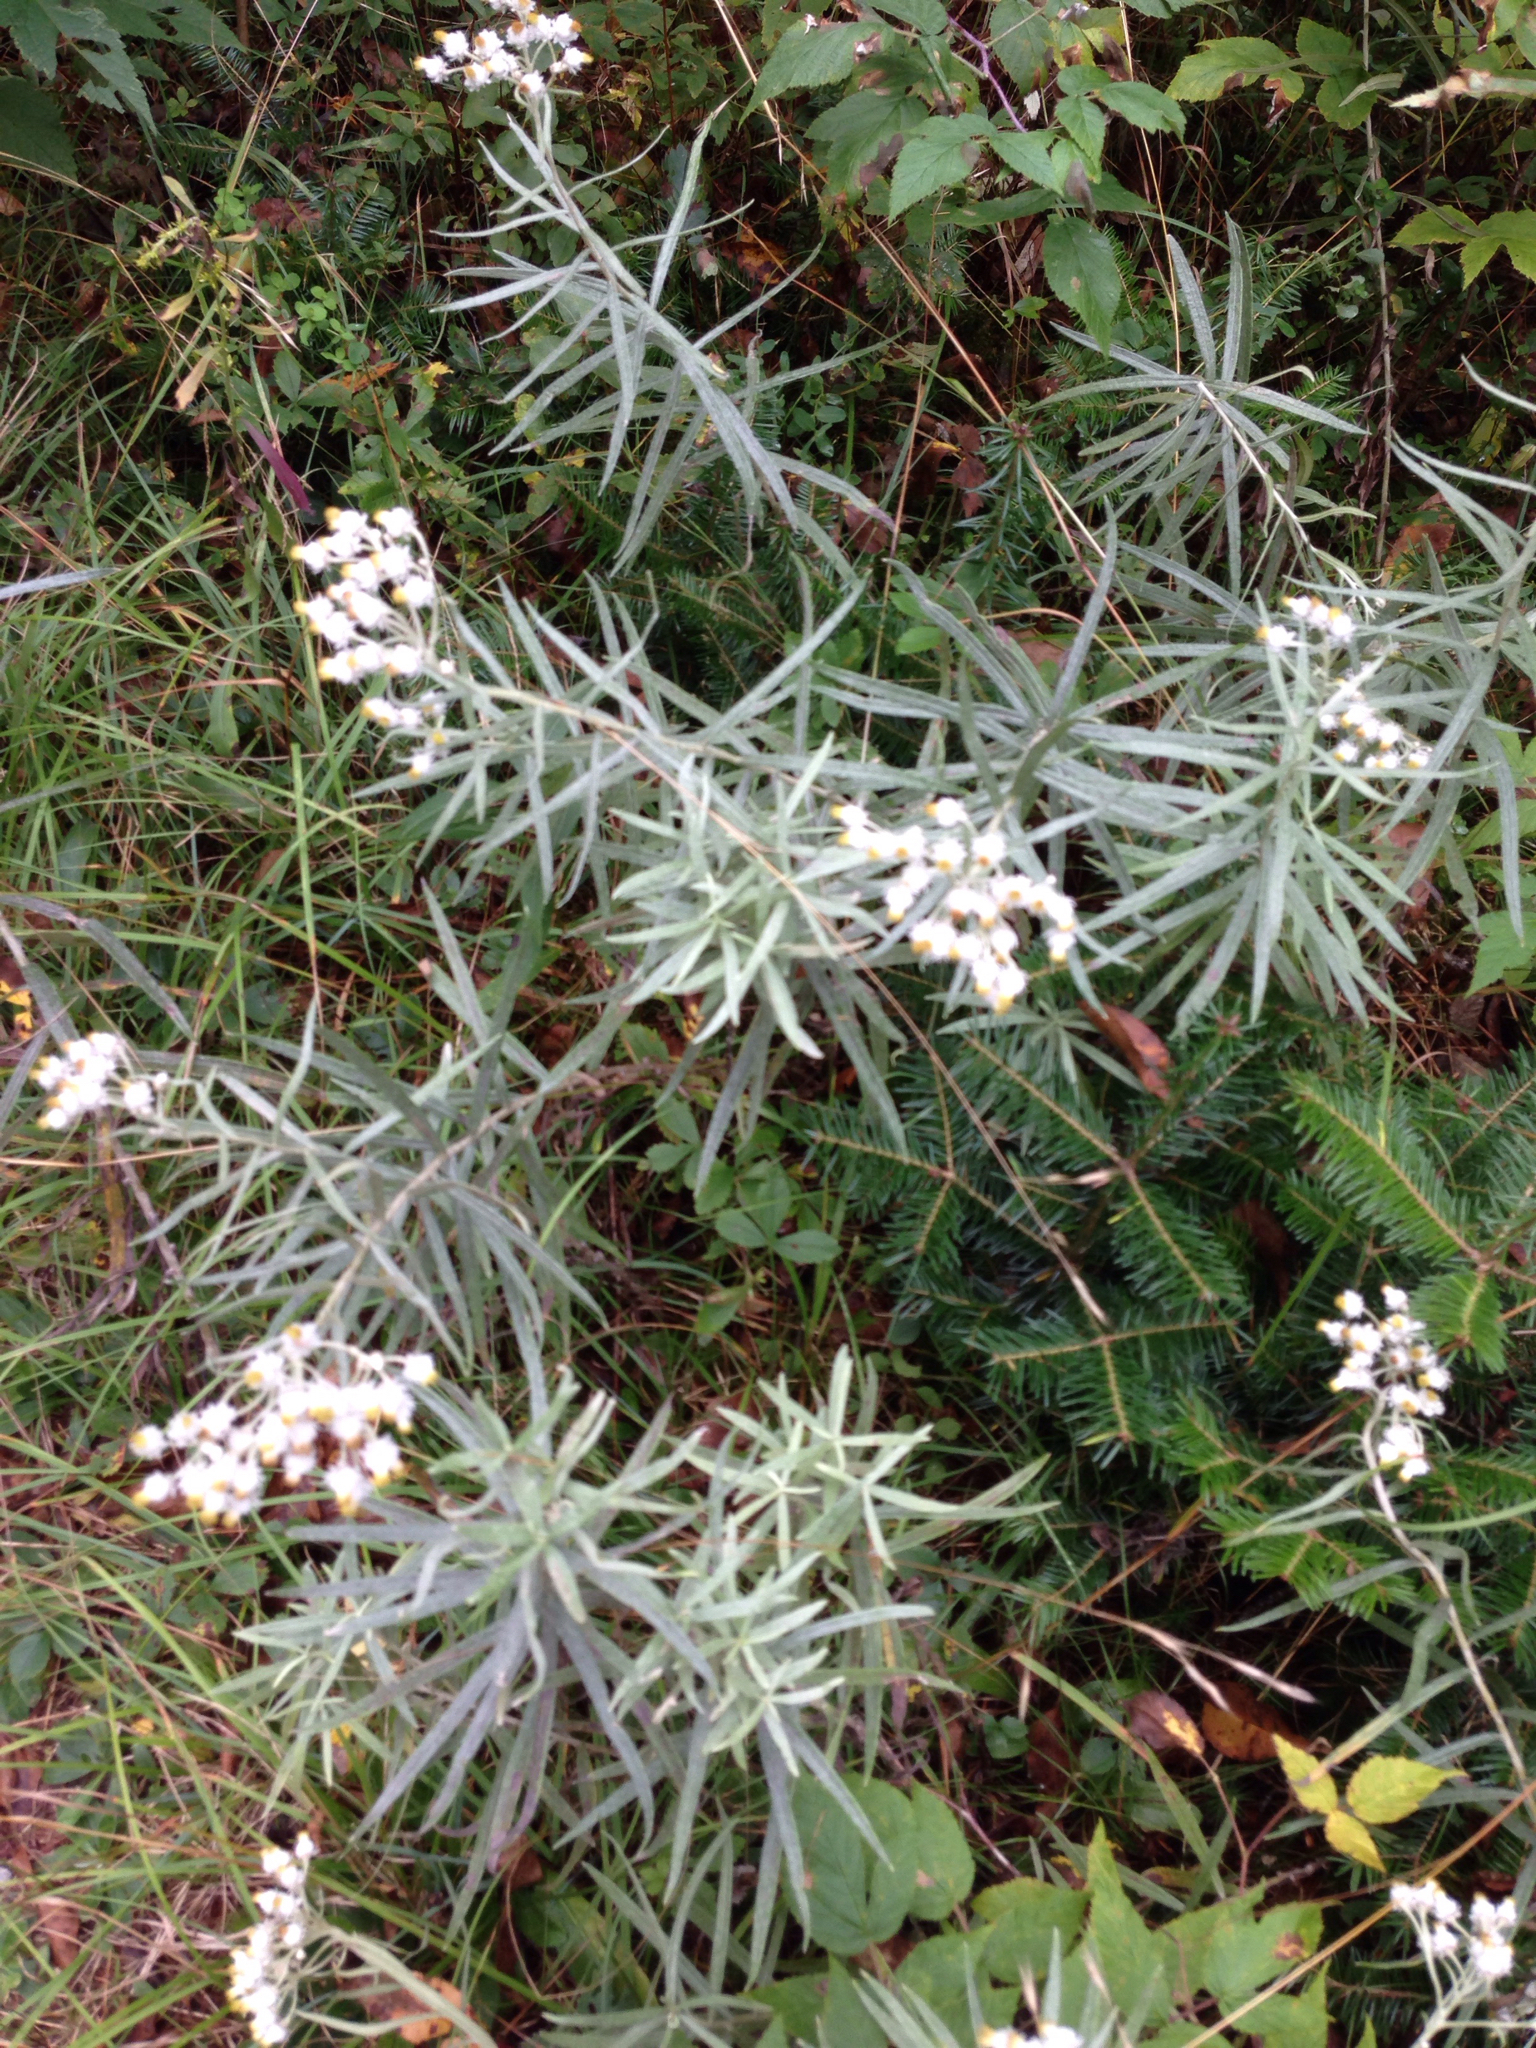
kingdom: Plantae
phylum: Tracheophyta
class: Magnoliopsida
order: Asterales
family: Asteraceae
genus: Anaphalis
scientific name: Anaphalis margaritacea
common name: Pearly everlasting
